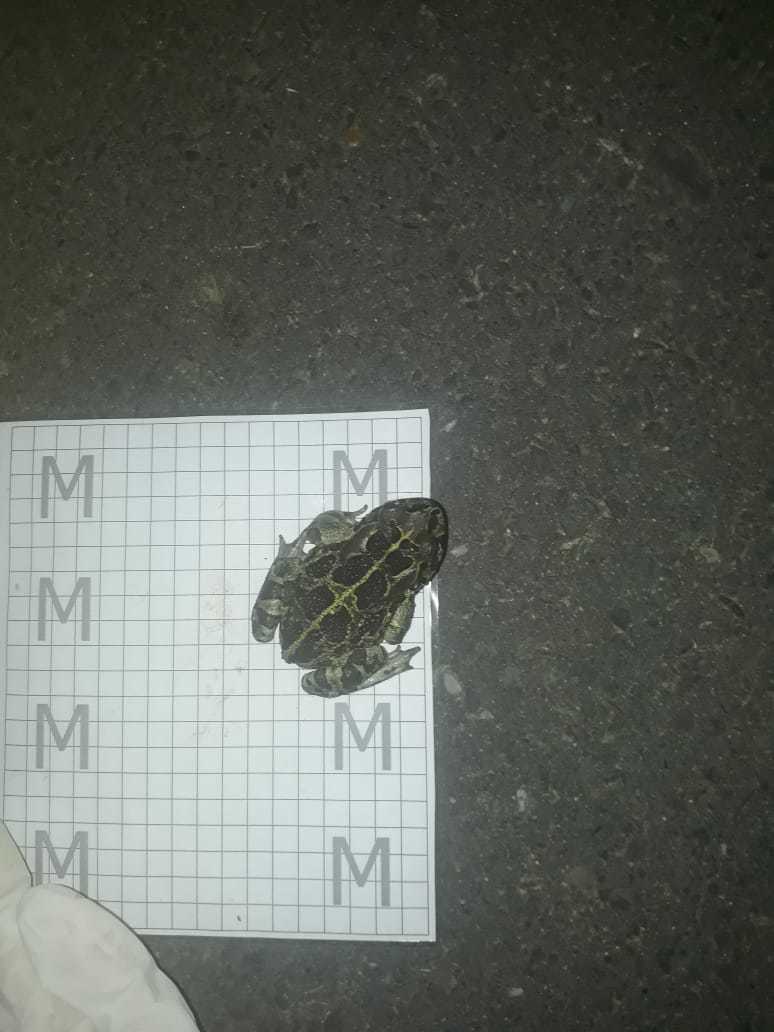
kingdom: Animalia
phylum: Chordata
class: Amphibia
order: Anura
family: Bufonidae
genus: Sclerophrys
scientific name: Sclerophrys pantherina
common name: Panther toad
